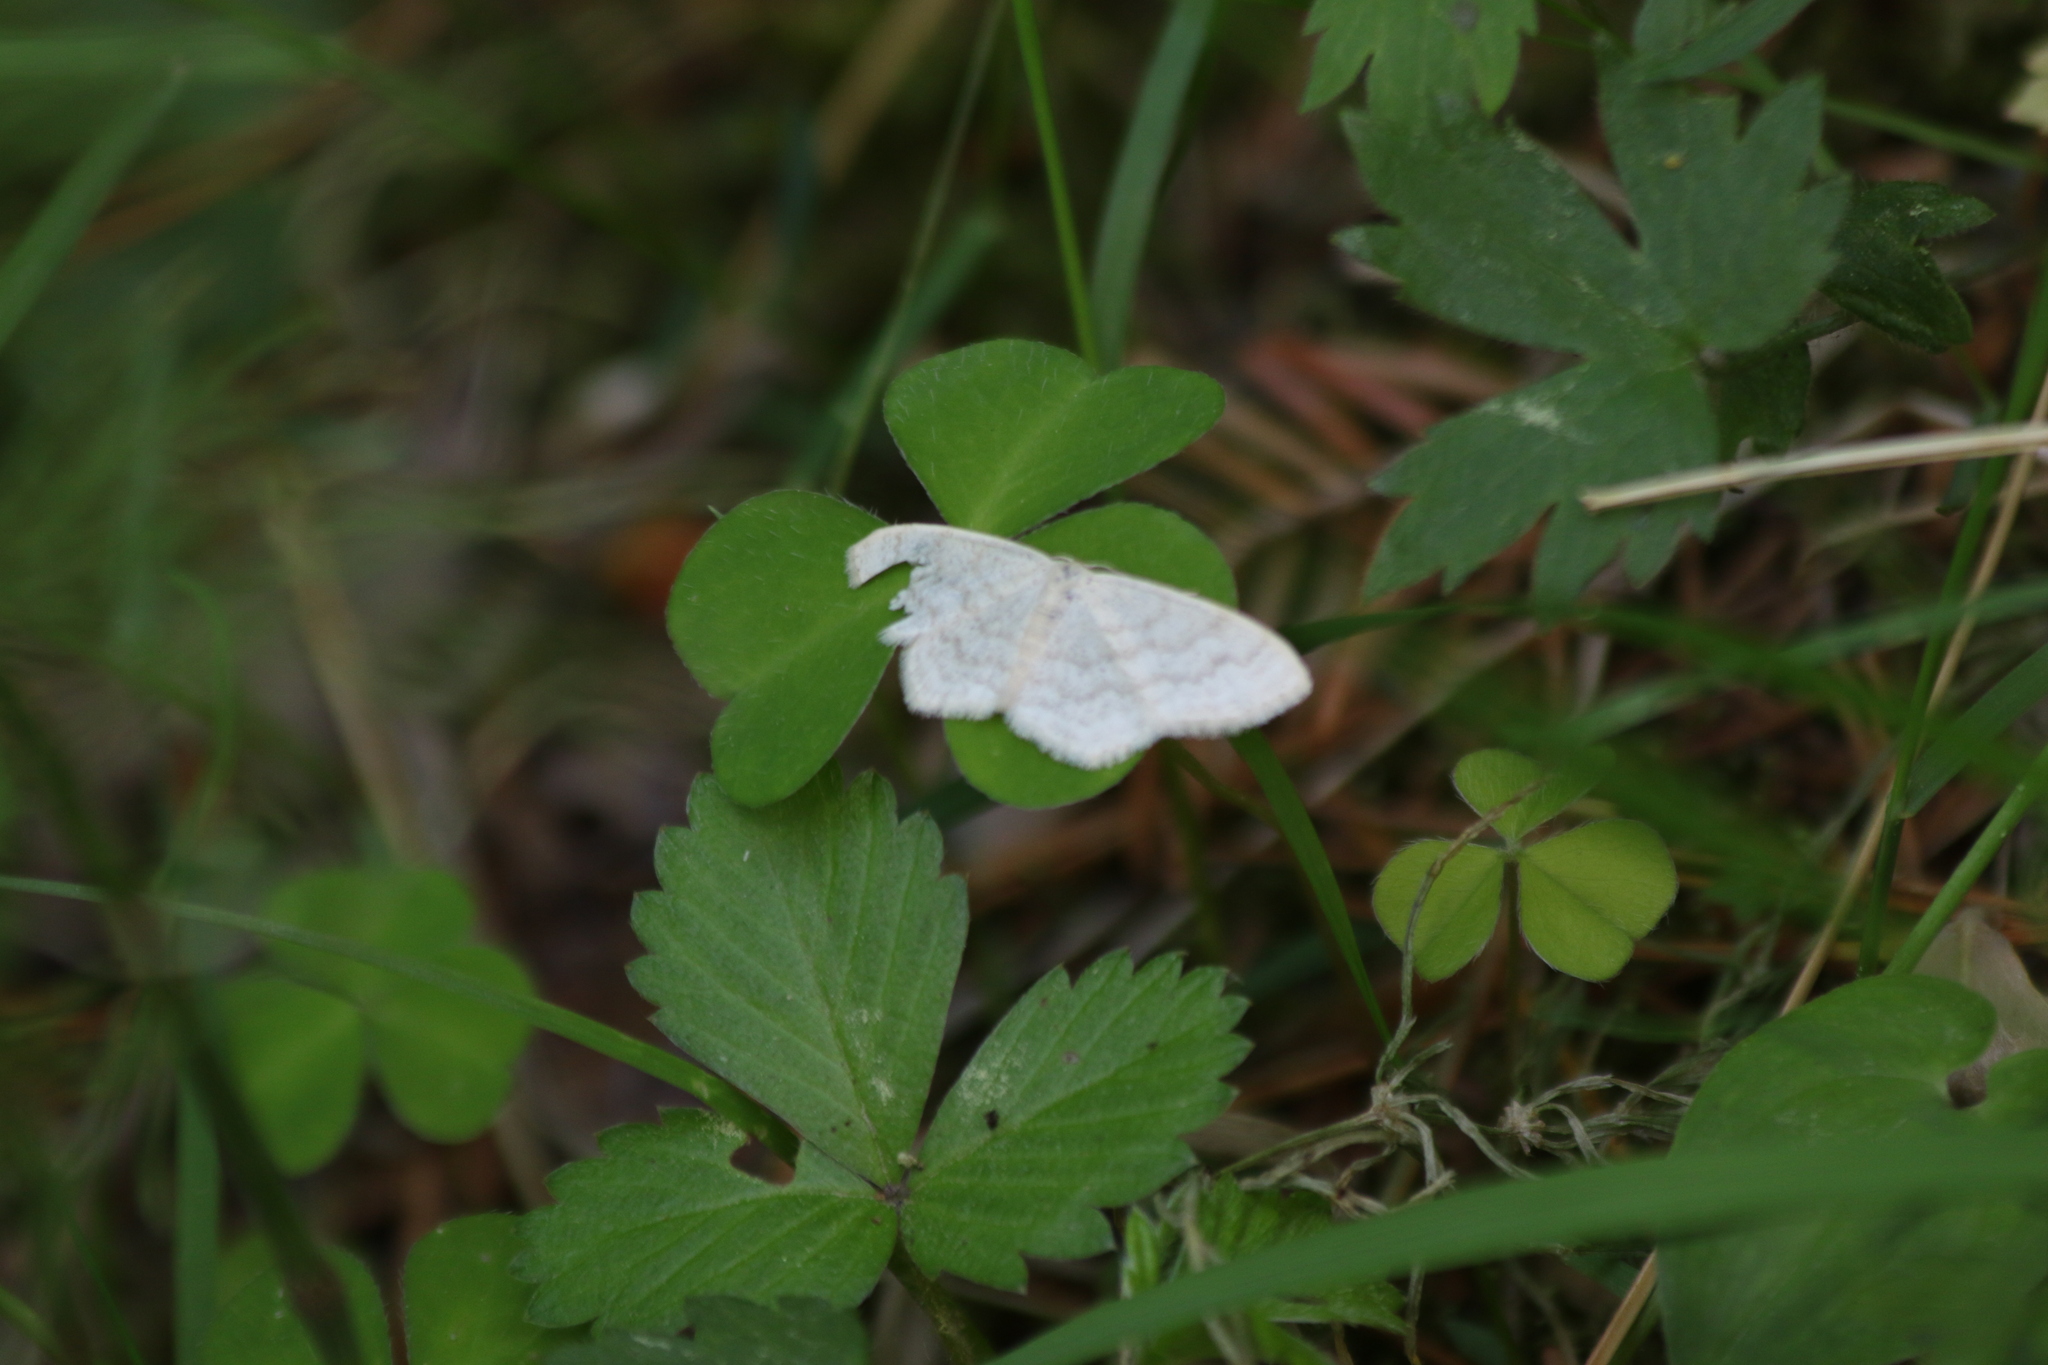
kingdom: Animalia
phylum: Arthropoda
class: Insecta
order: Lepidoptera
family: Geometridae
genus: Scopula
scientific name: Scopula floslactata
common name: Cream wave
